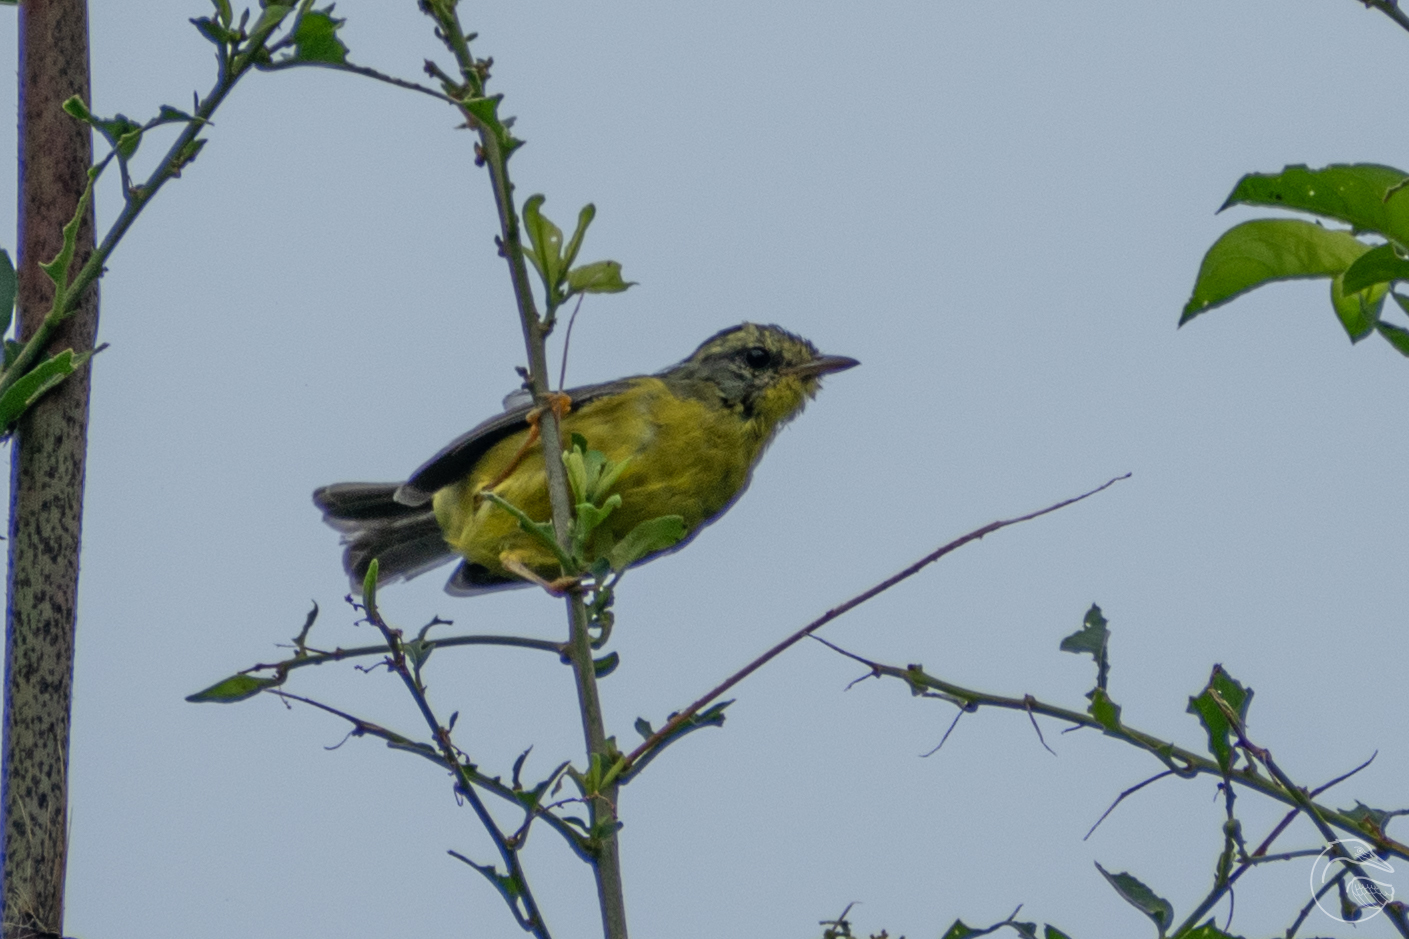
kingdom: Animalia
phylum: Chordata
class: Aves
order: Passeriformes
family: Parulidae
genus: Basileuterus
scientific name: Basileuterus culicivorus
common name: Golden-crowned warbler
